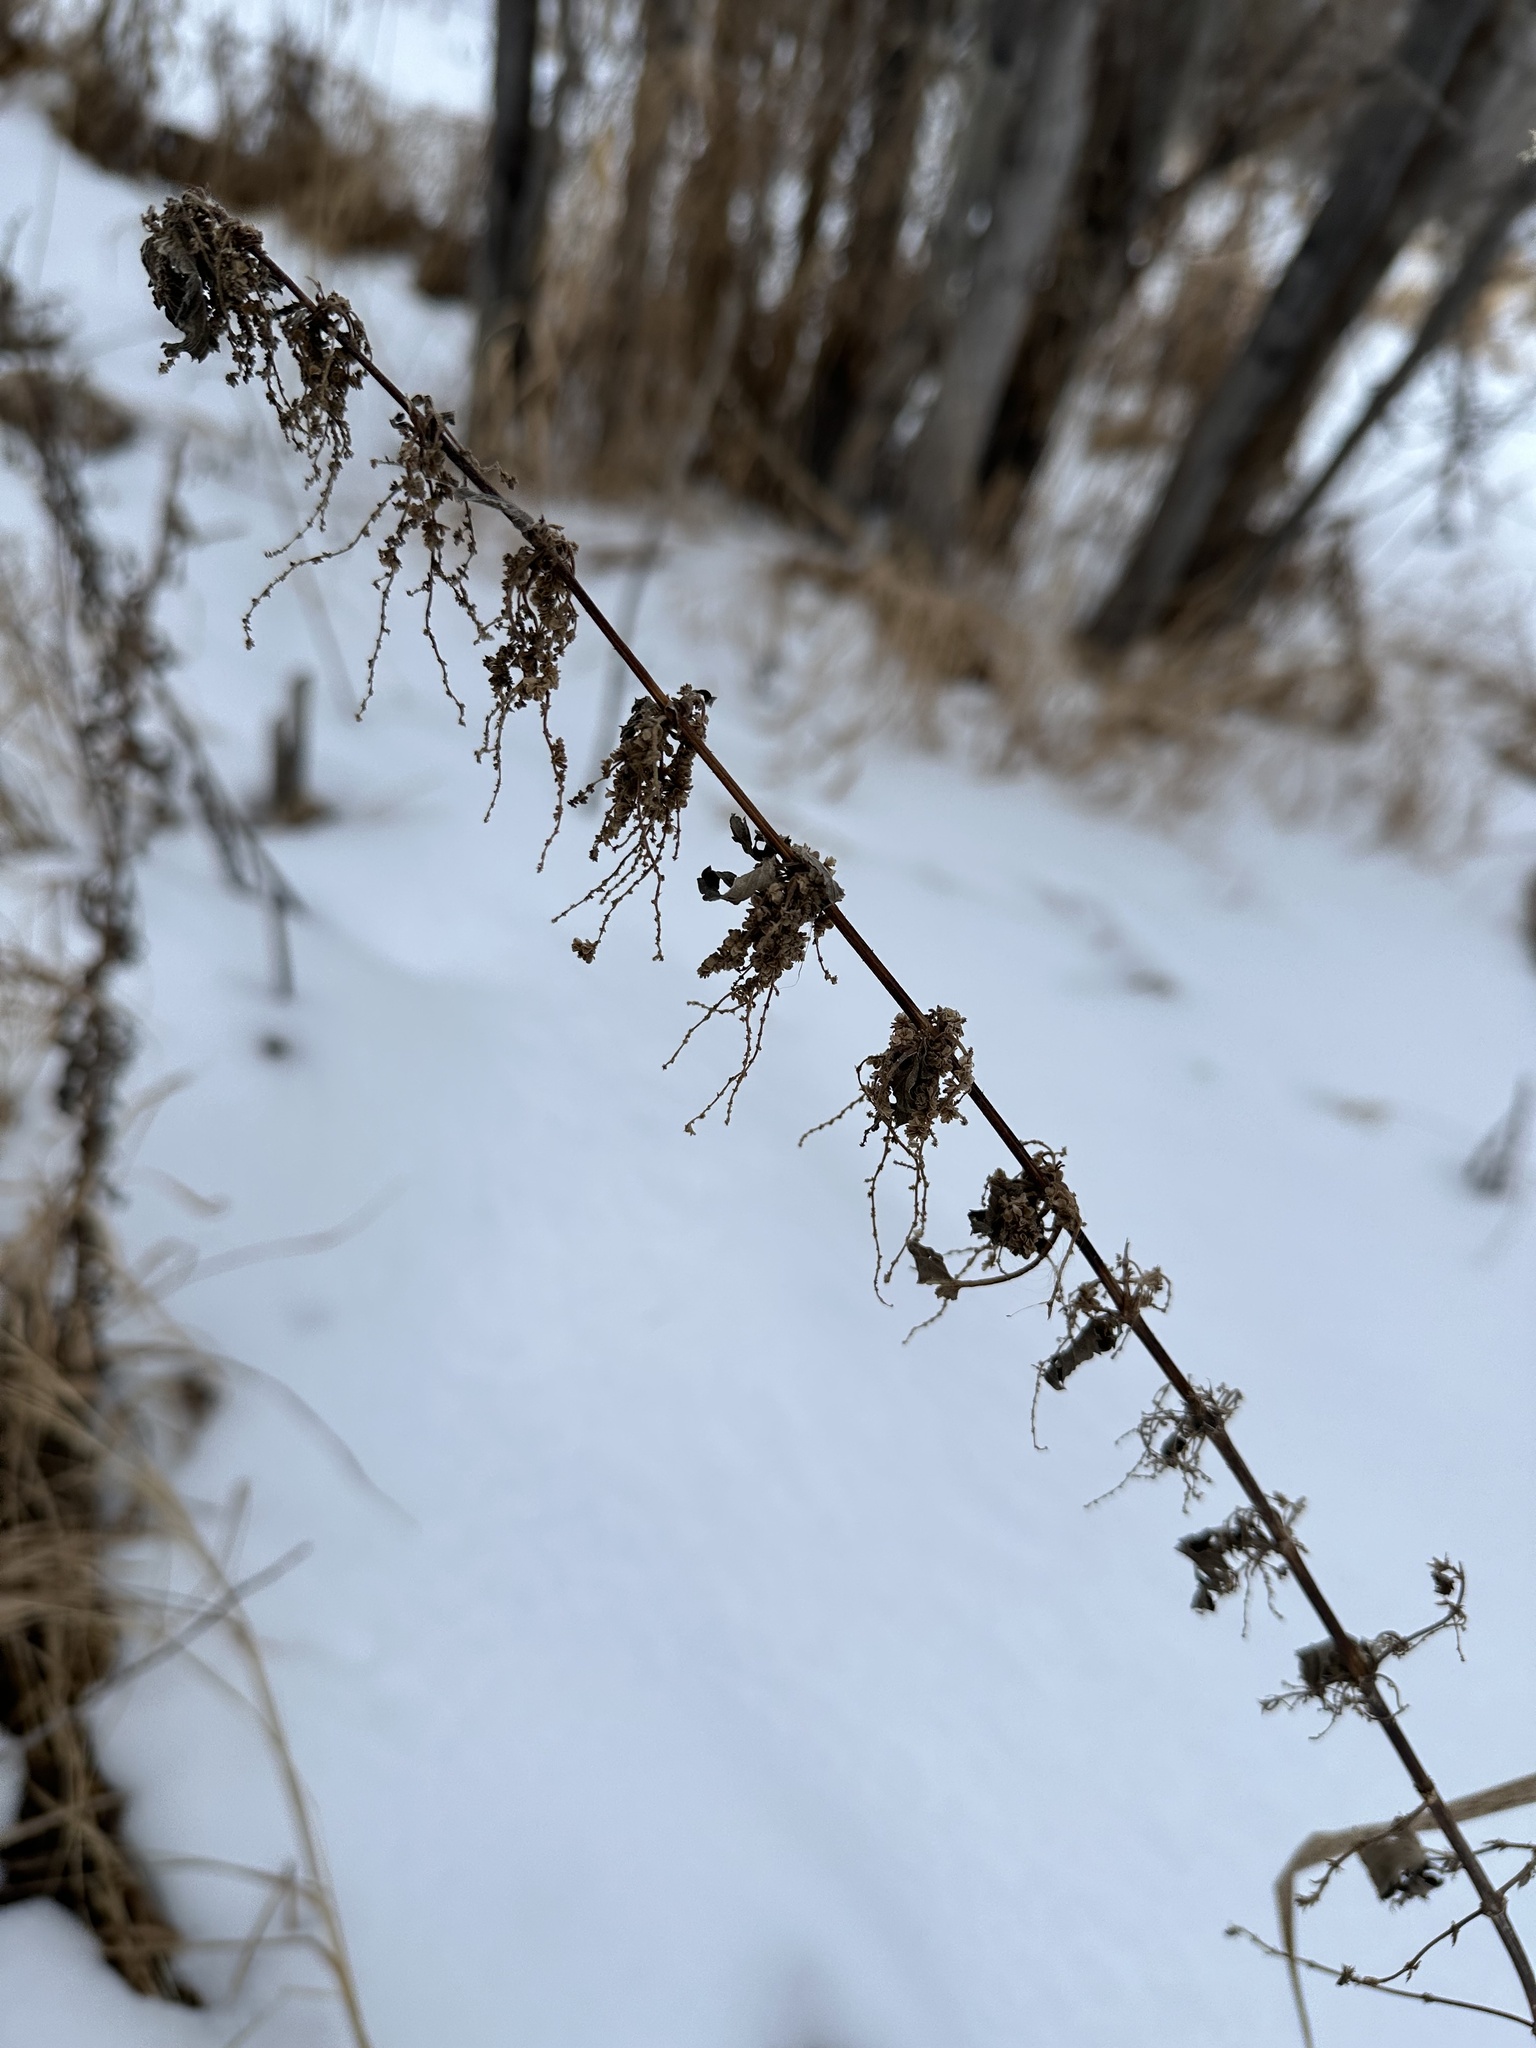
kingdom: Plantae
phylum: Tracheophyta
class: Magnoliopsida
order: Rosales
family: Urticaceae
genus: Urtica
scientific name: Urtica gracilis
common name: Slender stinging nettle
